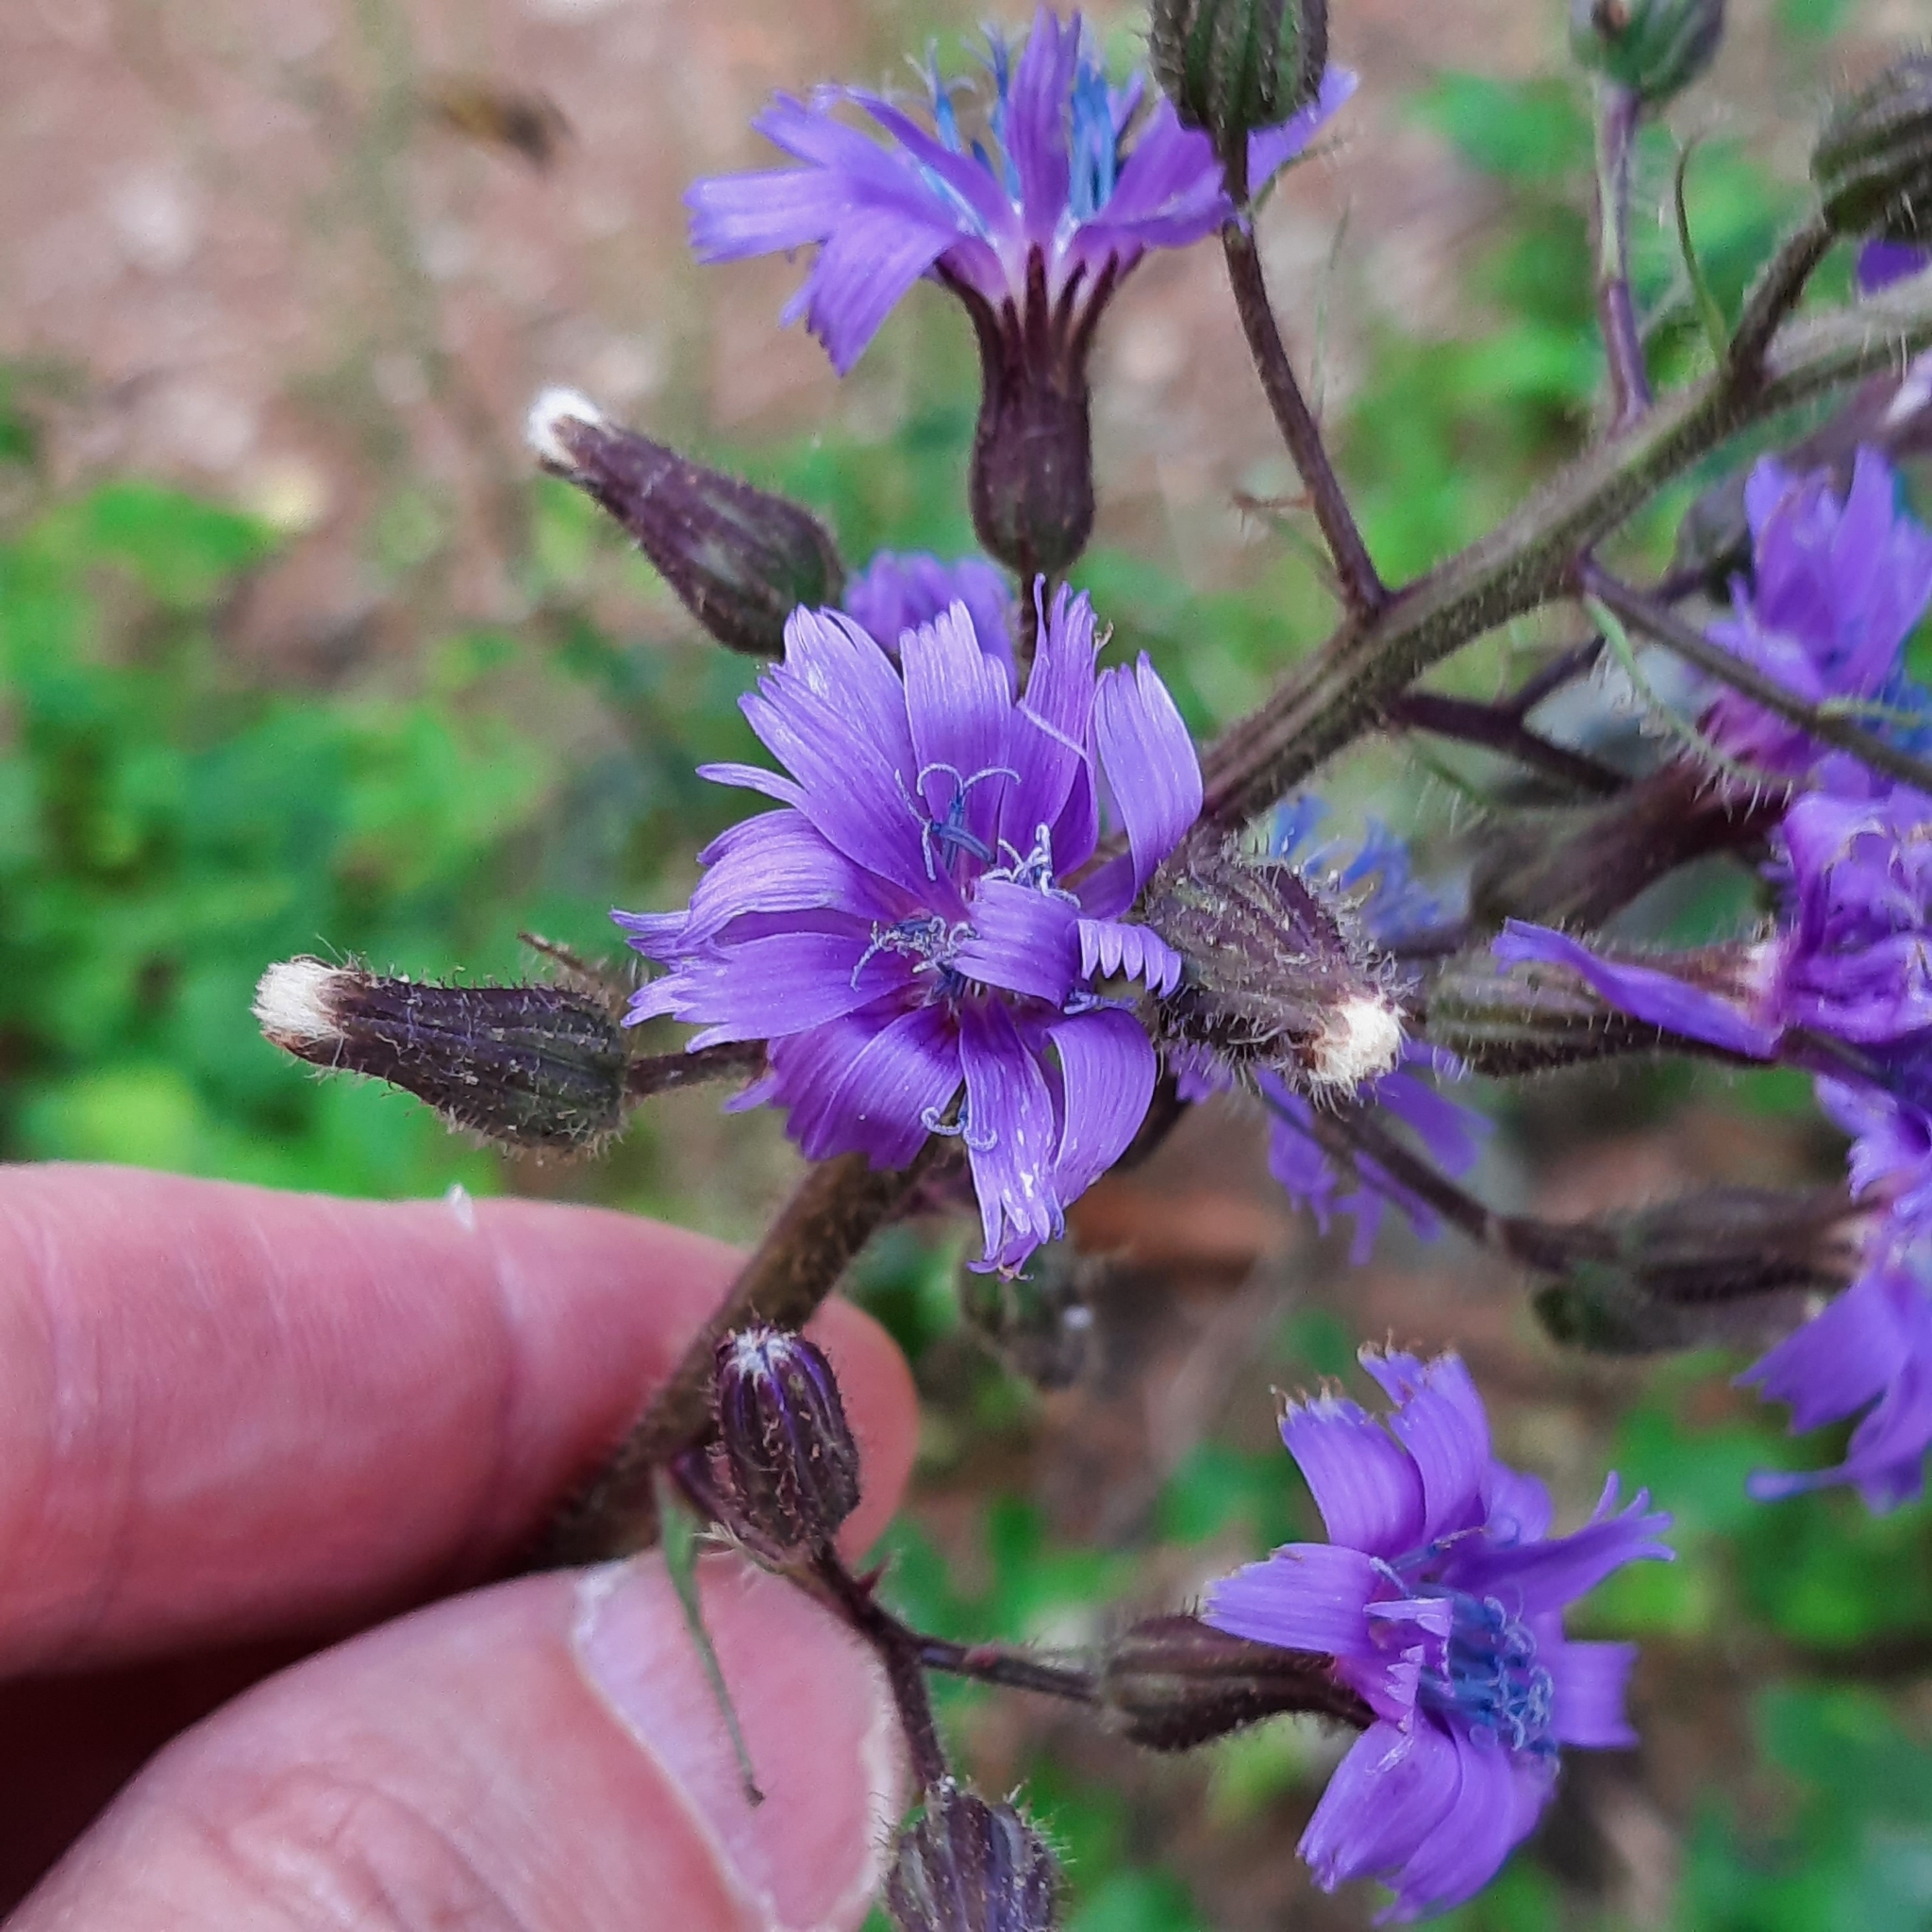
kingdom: Plantae
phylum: Tracheophyta
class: Magnoliopsida
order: Asterales
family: Asteraceae
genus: Cicerbita
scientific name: Cicerbita alpina
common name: Alpine blue-sow-thistle
